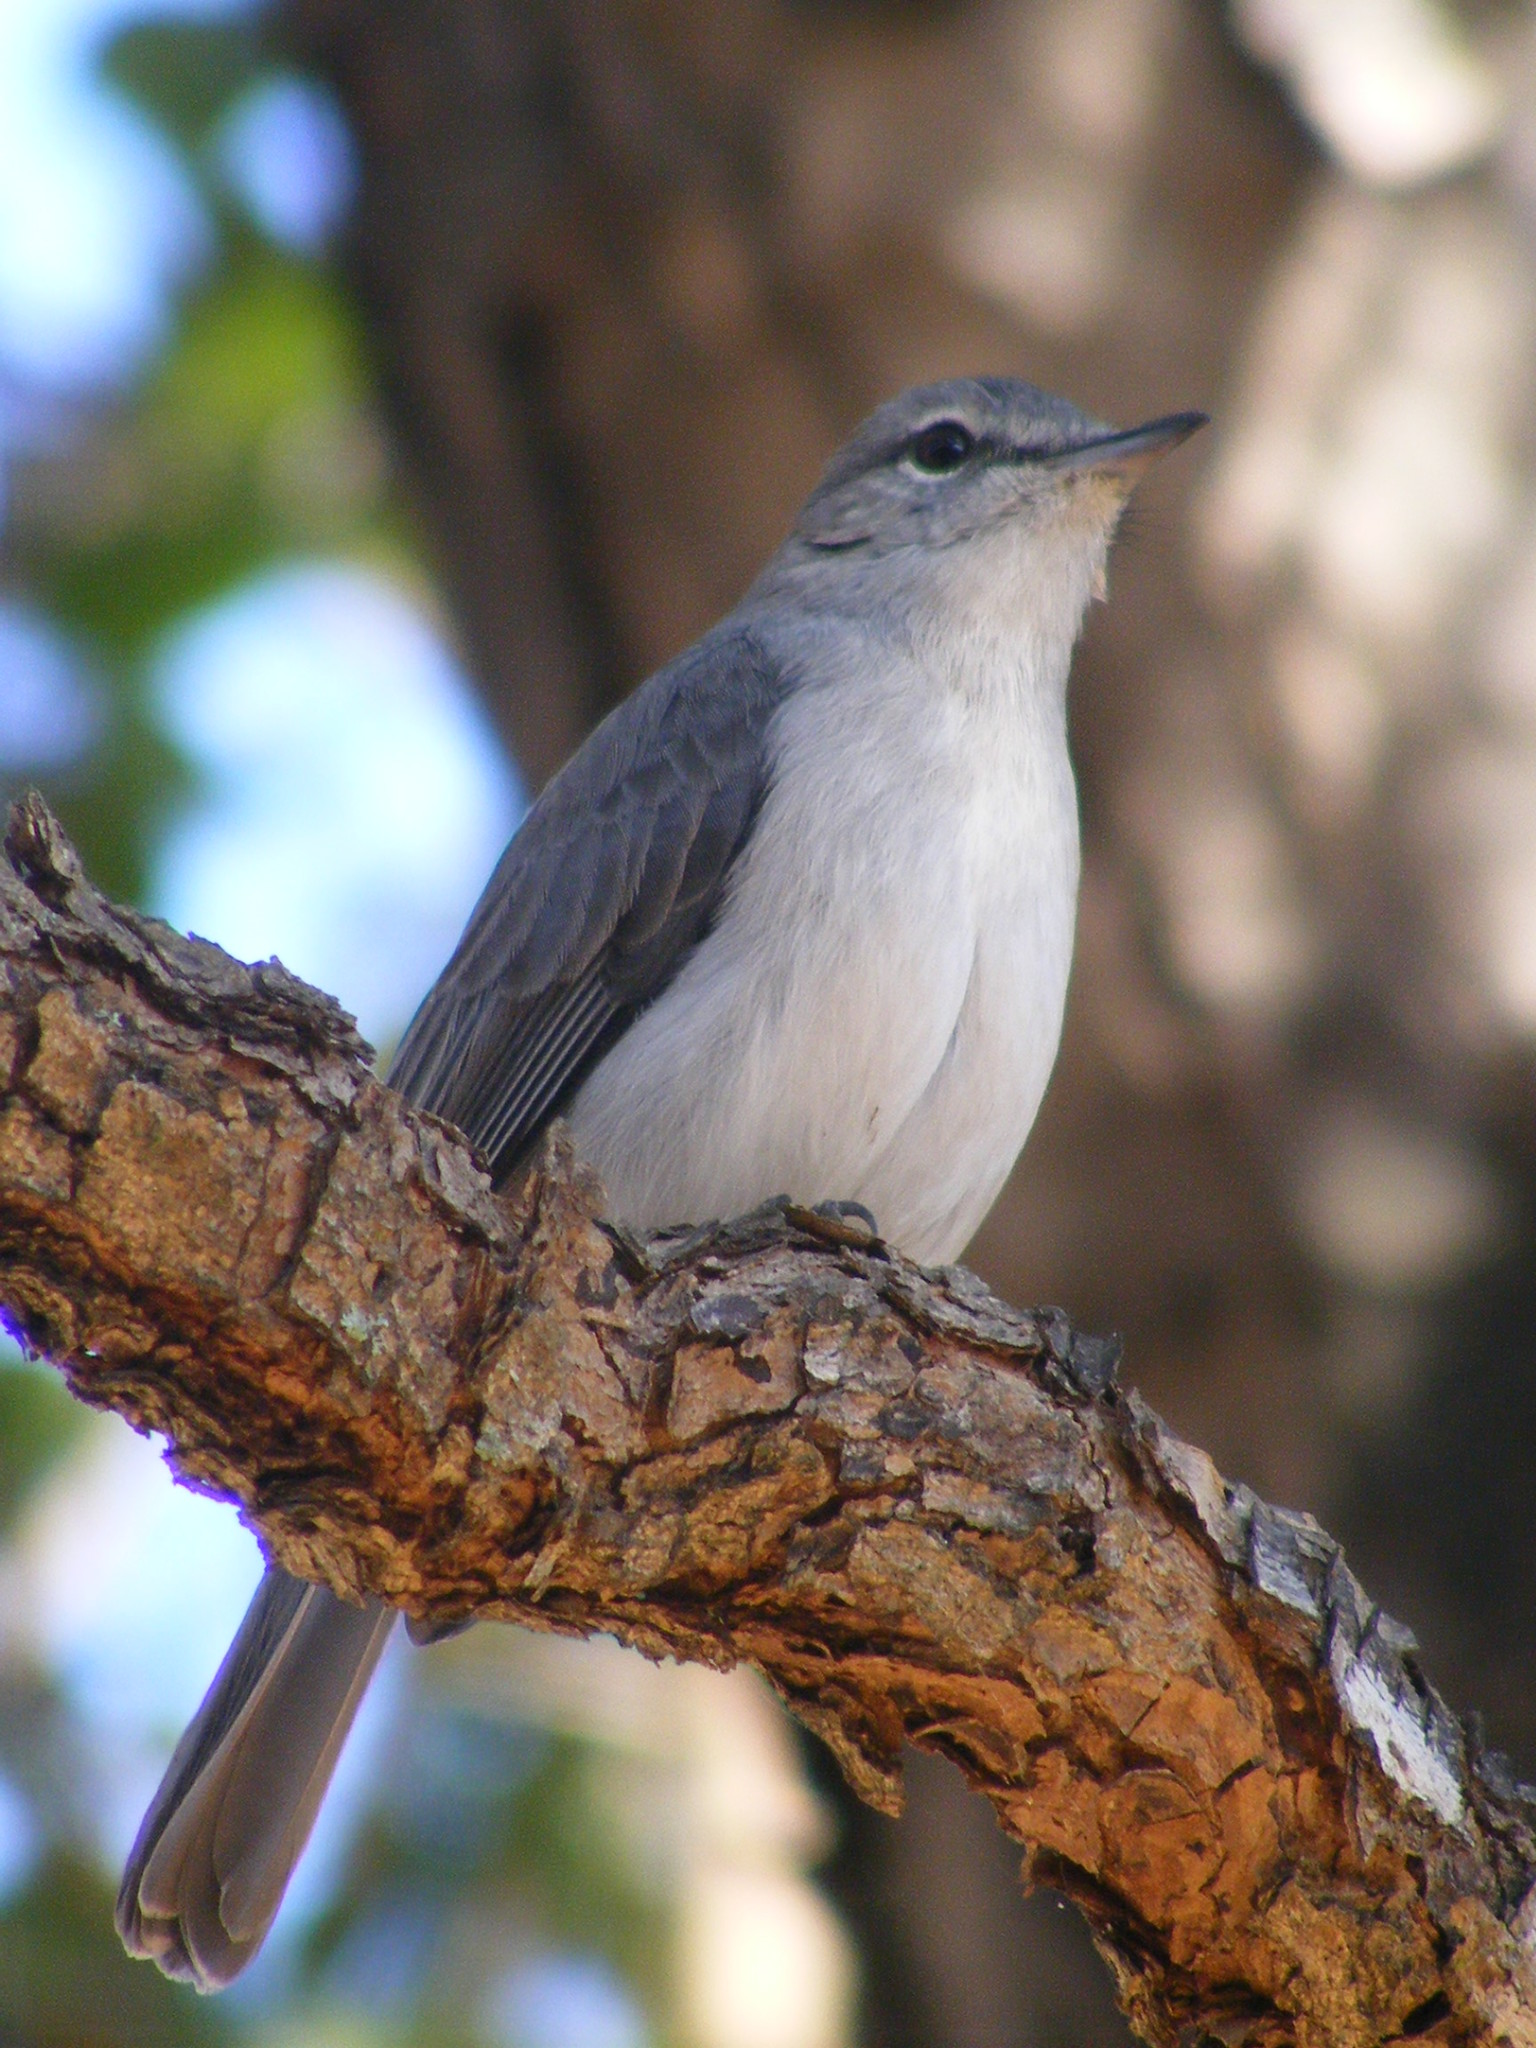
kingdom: Animalia
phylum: Chordata
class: Aves
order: Passeriformes
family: Muscicapidae
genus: Muscicapa
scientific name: Muscicapa caerulescens
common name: Ashy flycatcher
